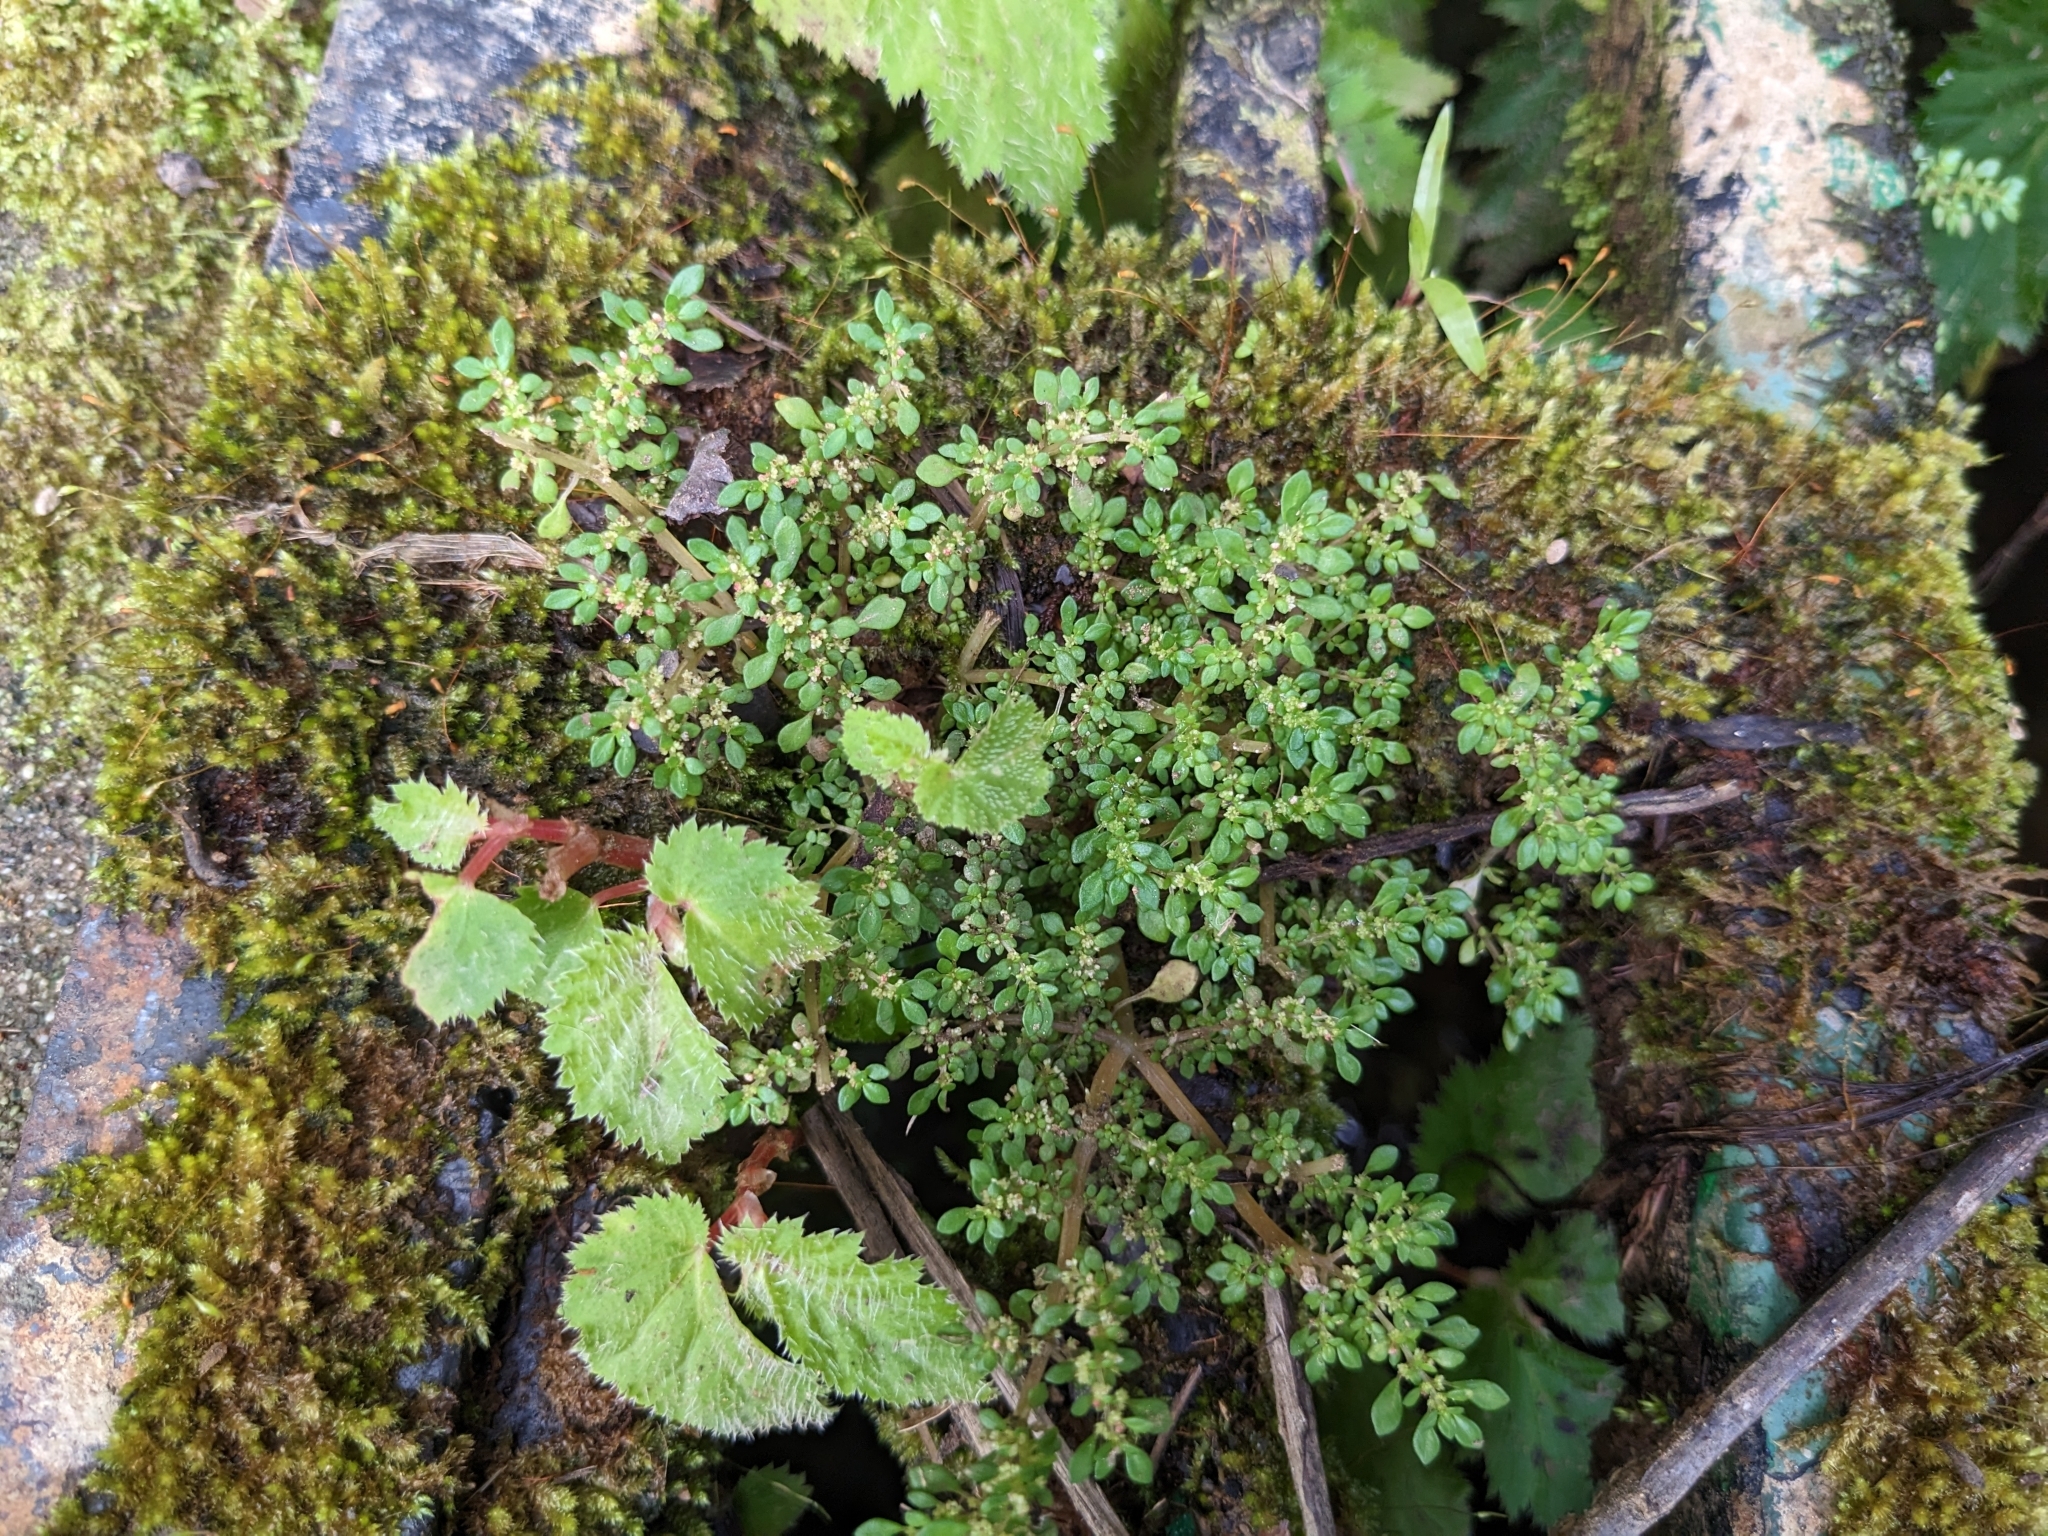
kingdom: Plantae
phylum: Tracheophyta
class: Magnoliopsida
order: Rosales
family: Urticaceae
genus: Pilea
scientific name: Pilea microphylla
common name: Artillery-plant
